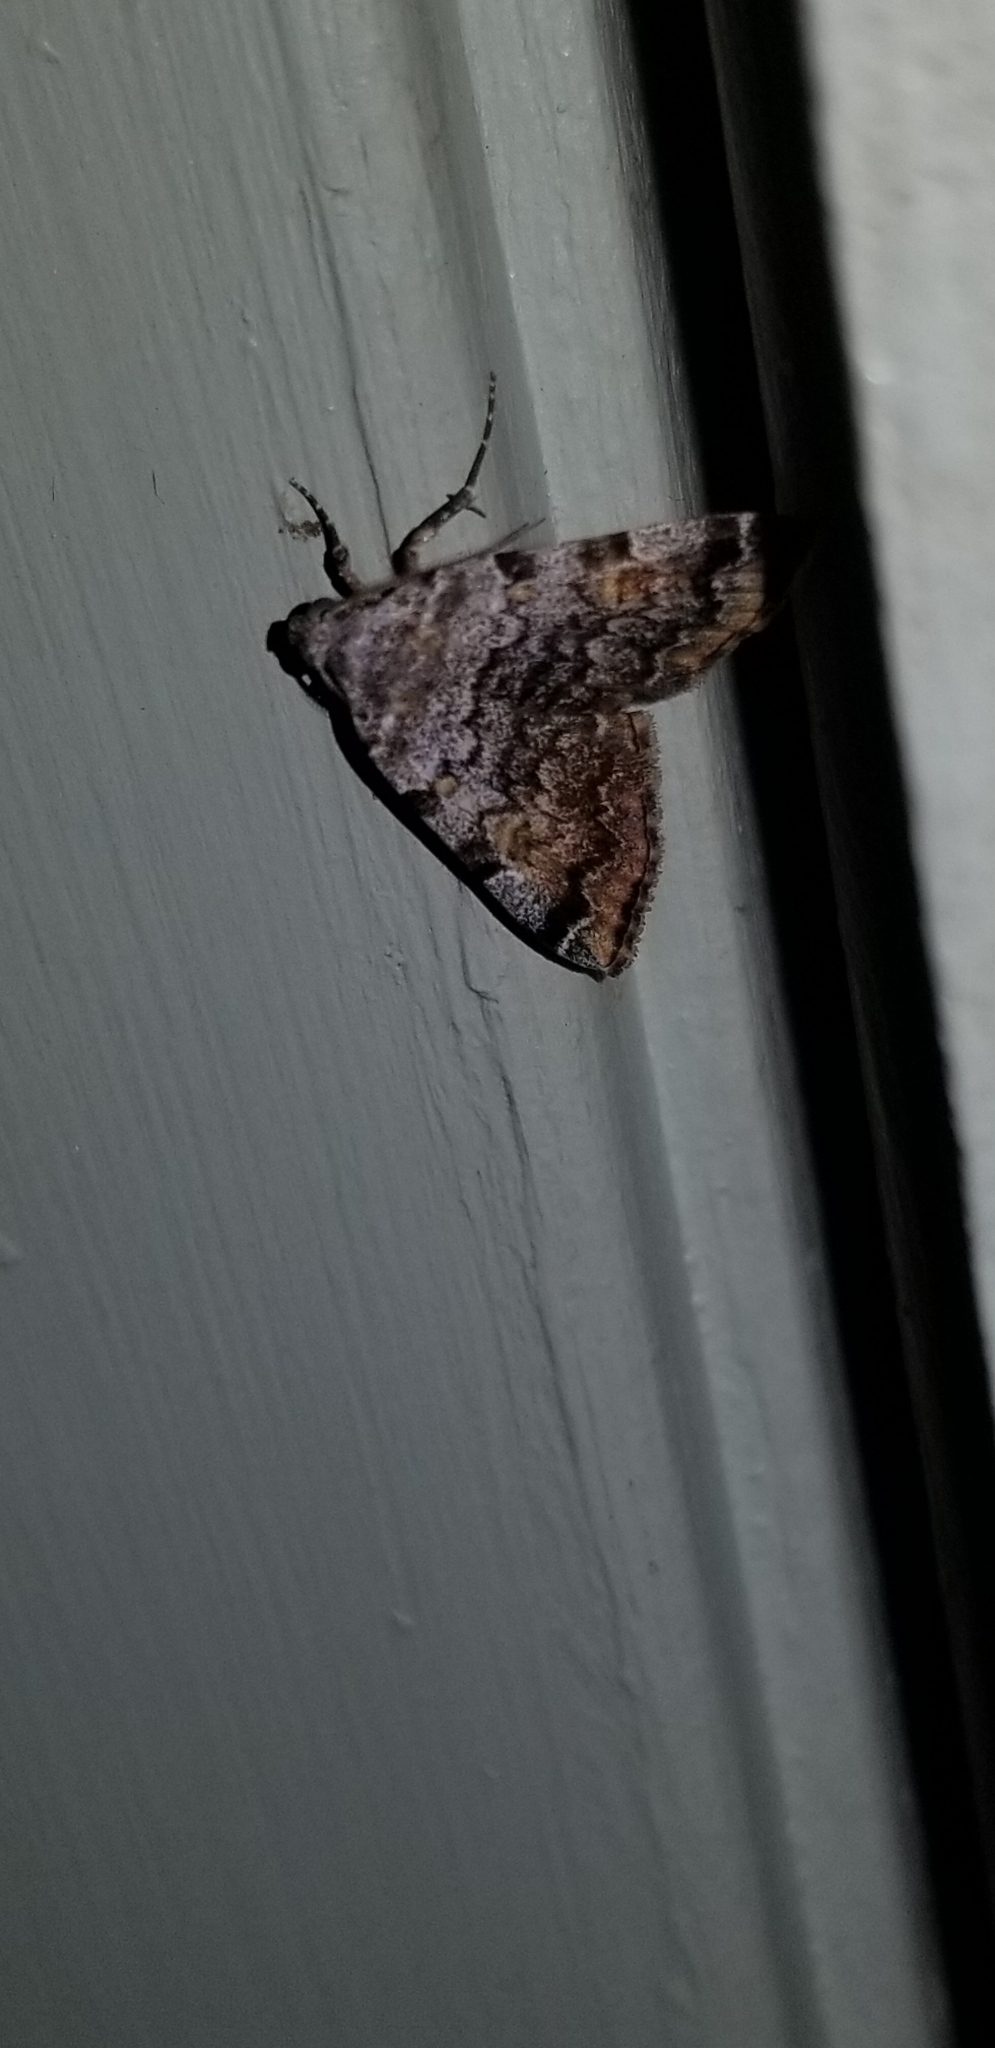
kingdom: Animalia
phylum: Arthropoda
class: Insecta
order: Lepidoptera
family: Erebidae
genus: Idia
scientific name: Idia americalis
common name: American idia moth
